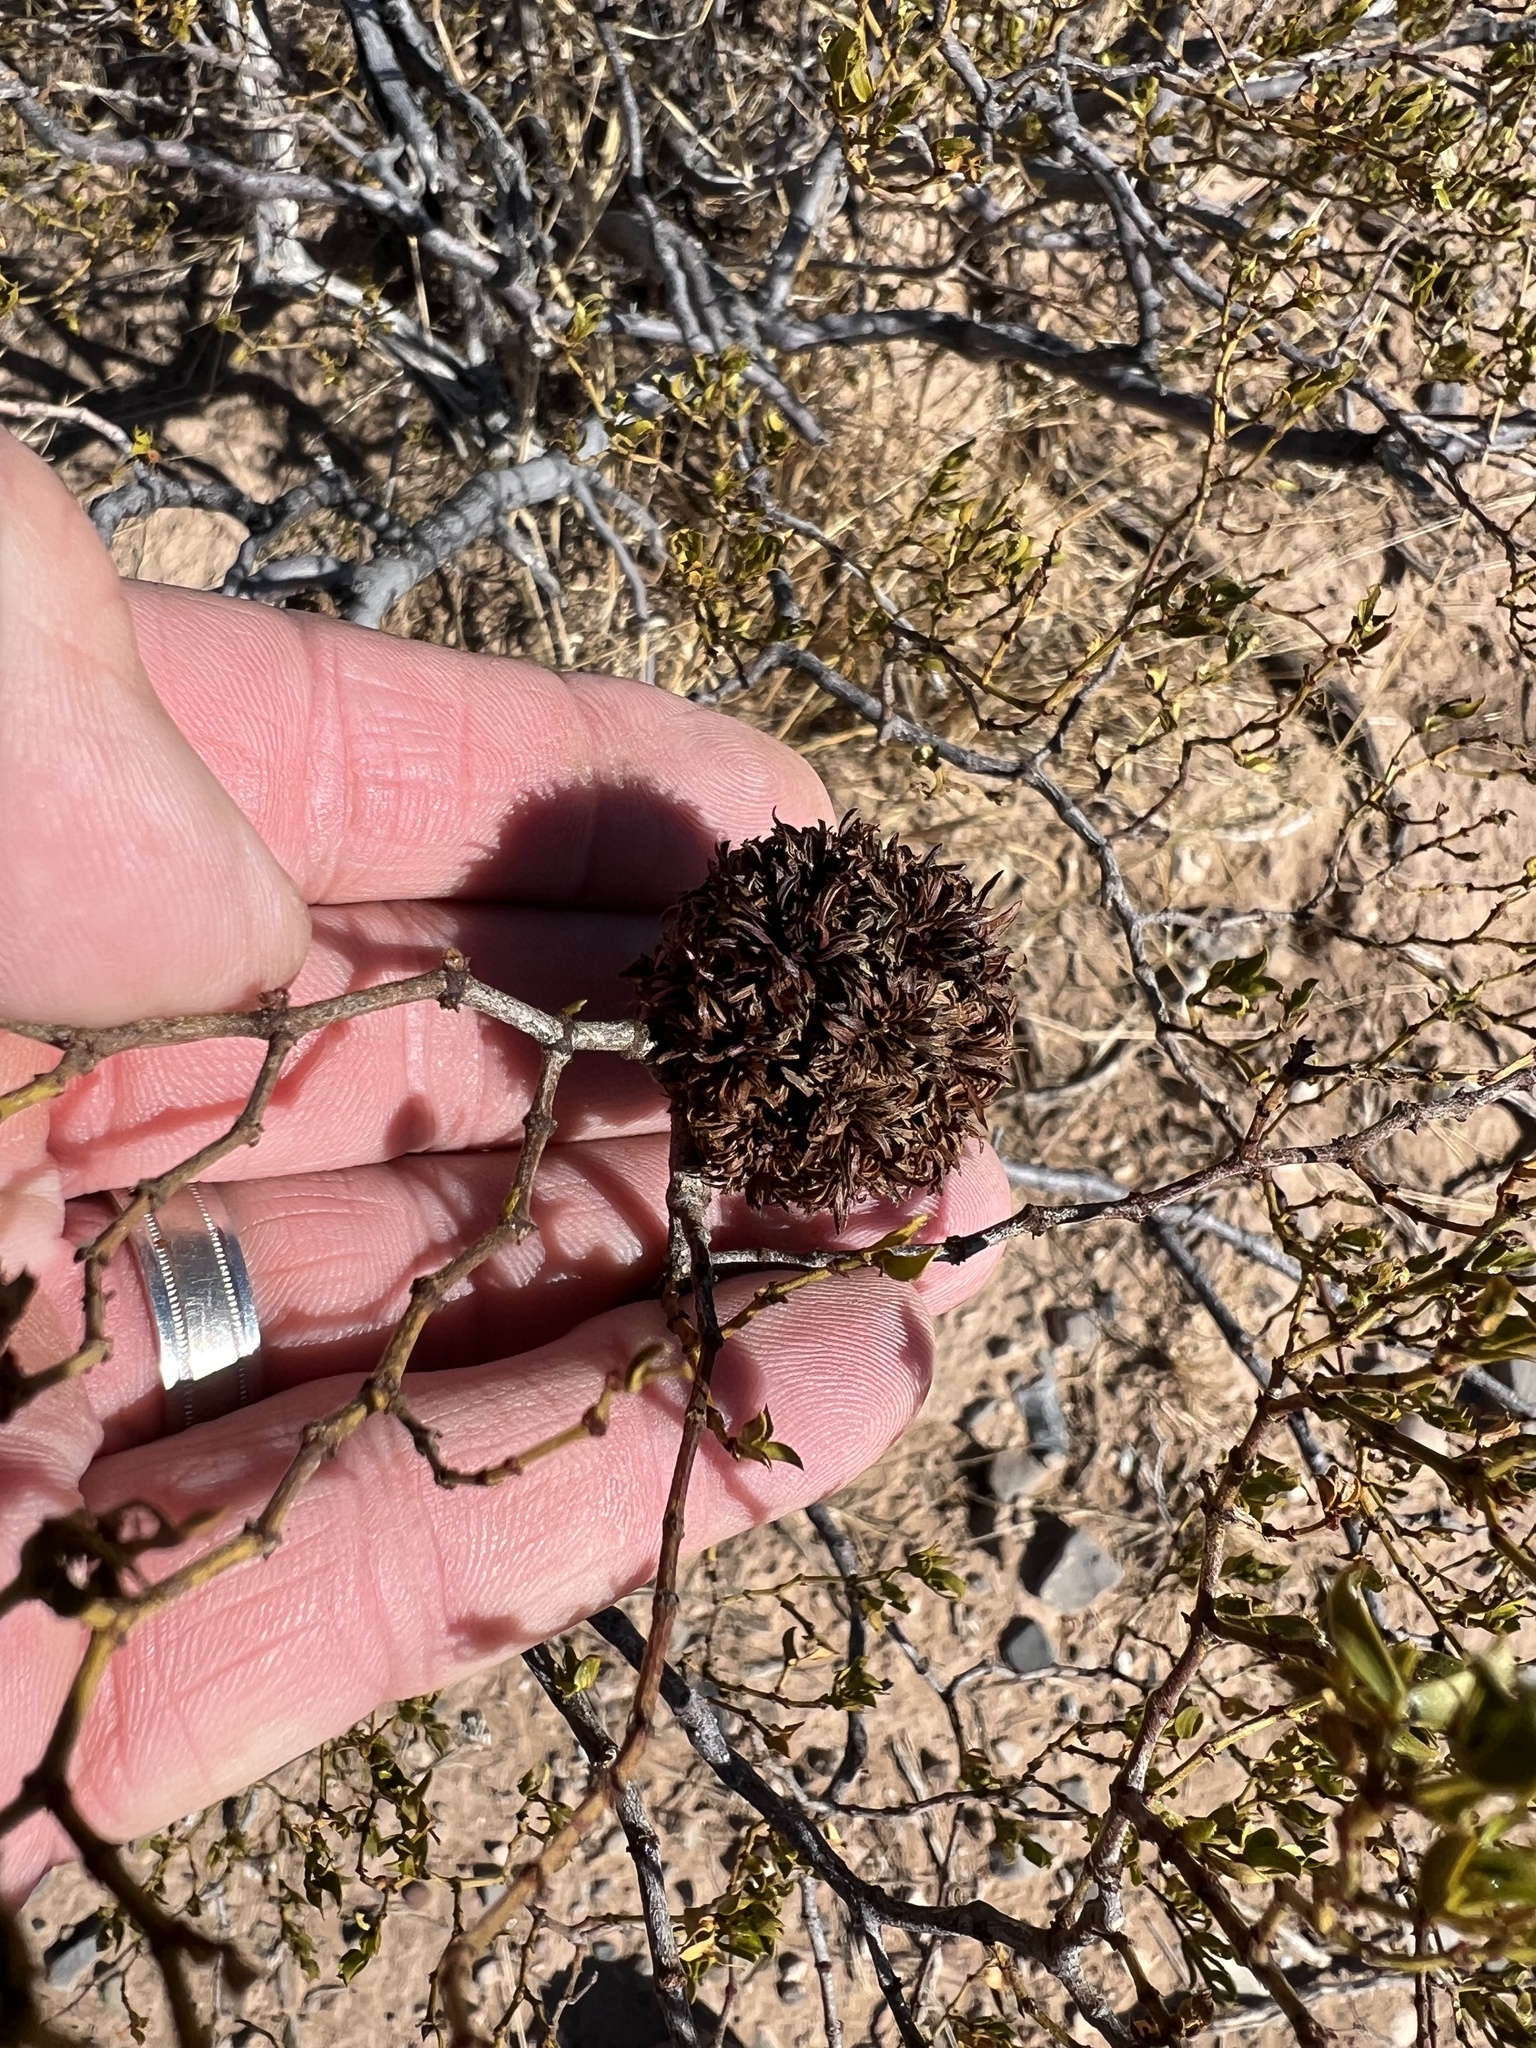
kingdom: Animalia
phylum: Arthropoda
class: Insecta
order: Diptera
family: Cecidomyiidae
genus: Asphondylia
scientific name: Asphondylia auripila
